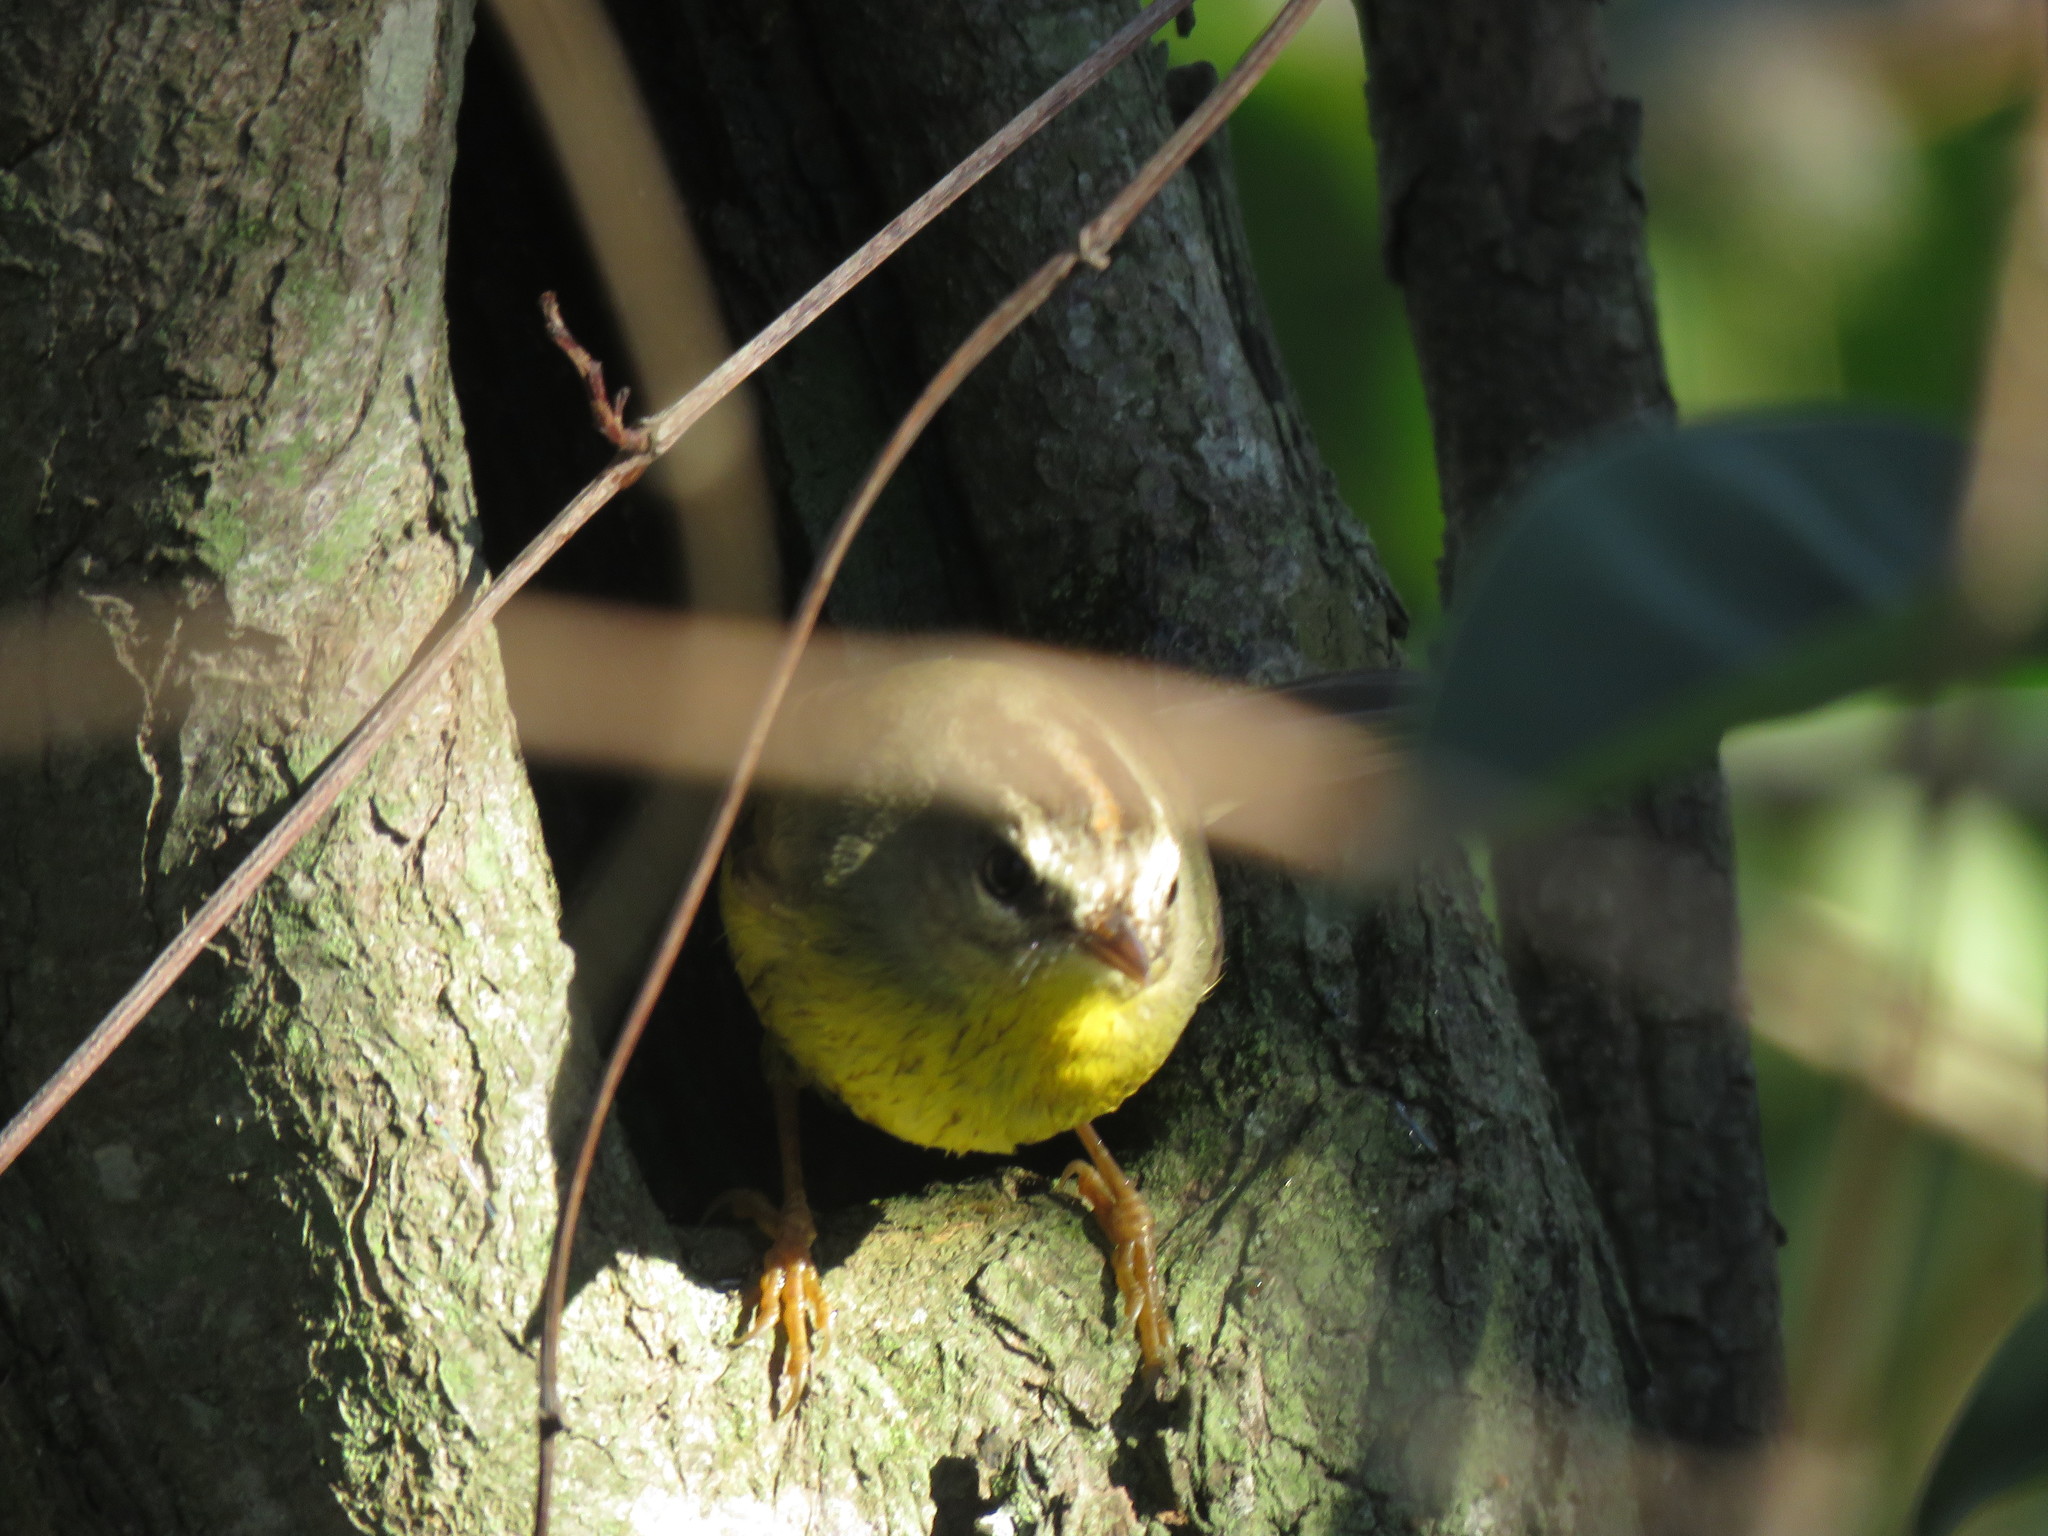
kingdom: Animalia
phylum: Chordata
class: Aves
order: Passeriformes
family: Parulidae
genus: Basileuterus
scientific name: Basileuterus culicivorus
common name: Golden-crowned warbler
